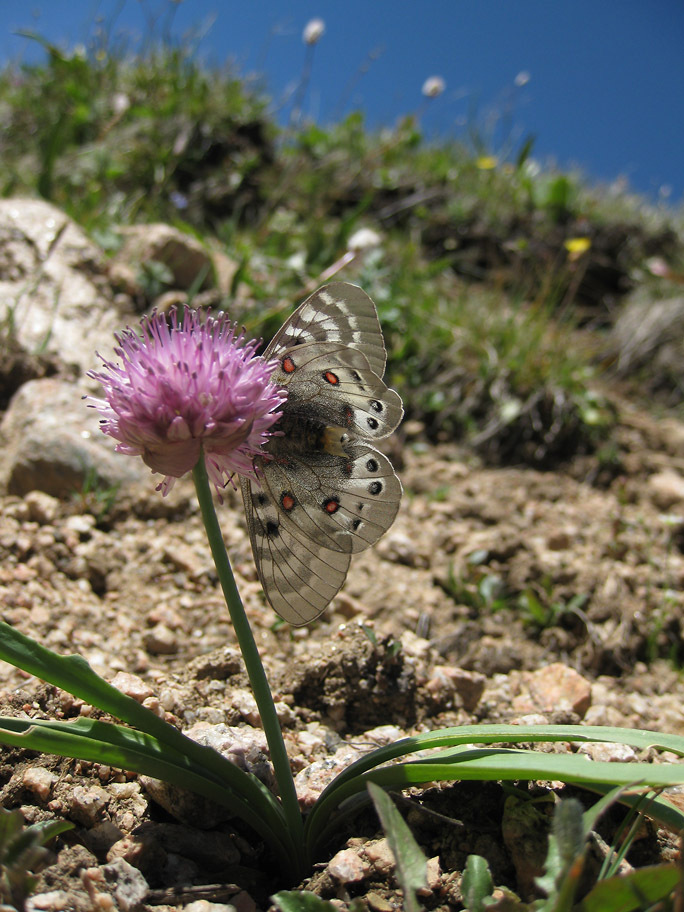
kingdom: Animalia
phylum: Arthropoda
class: Insecta
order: Lepidoptera
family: Papilionidae
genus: Parnassius
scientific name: Parnassius delphius
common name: Banded apollo
